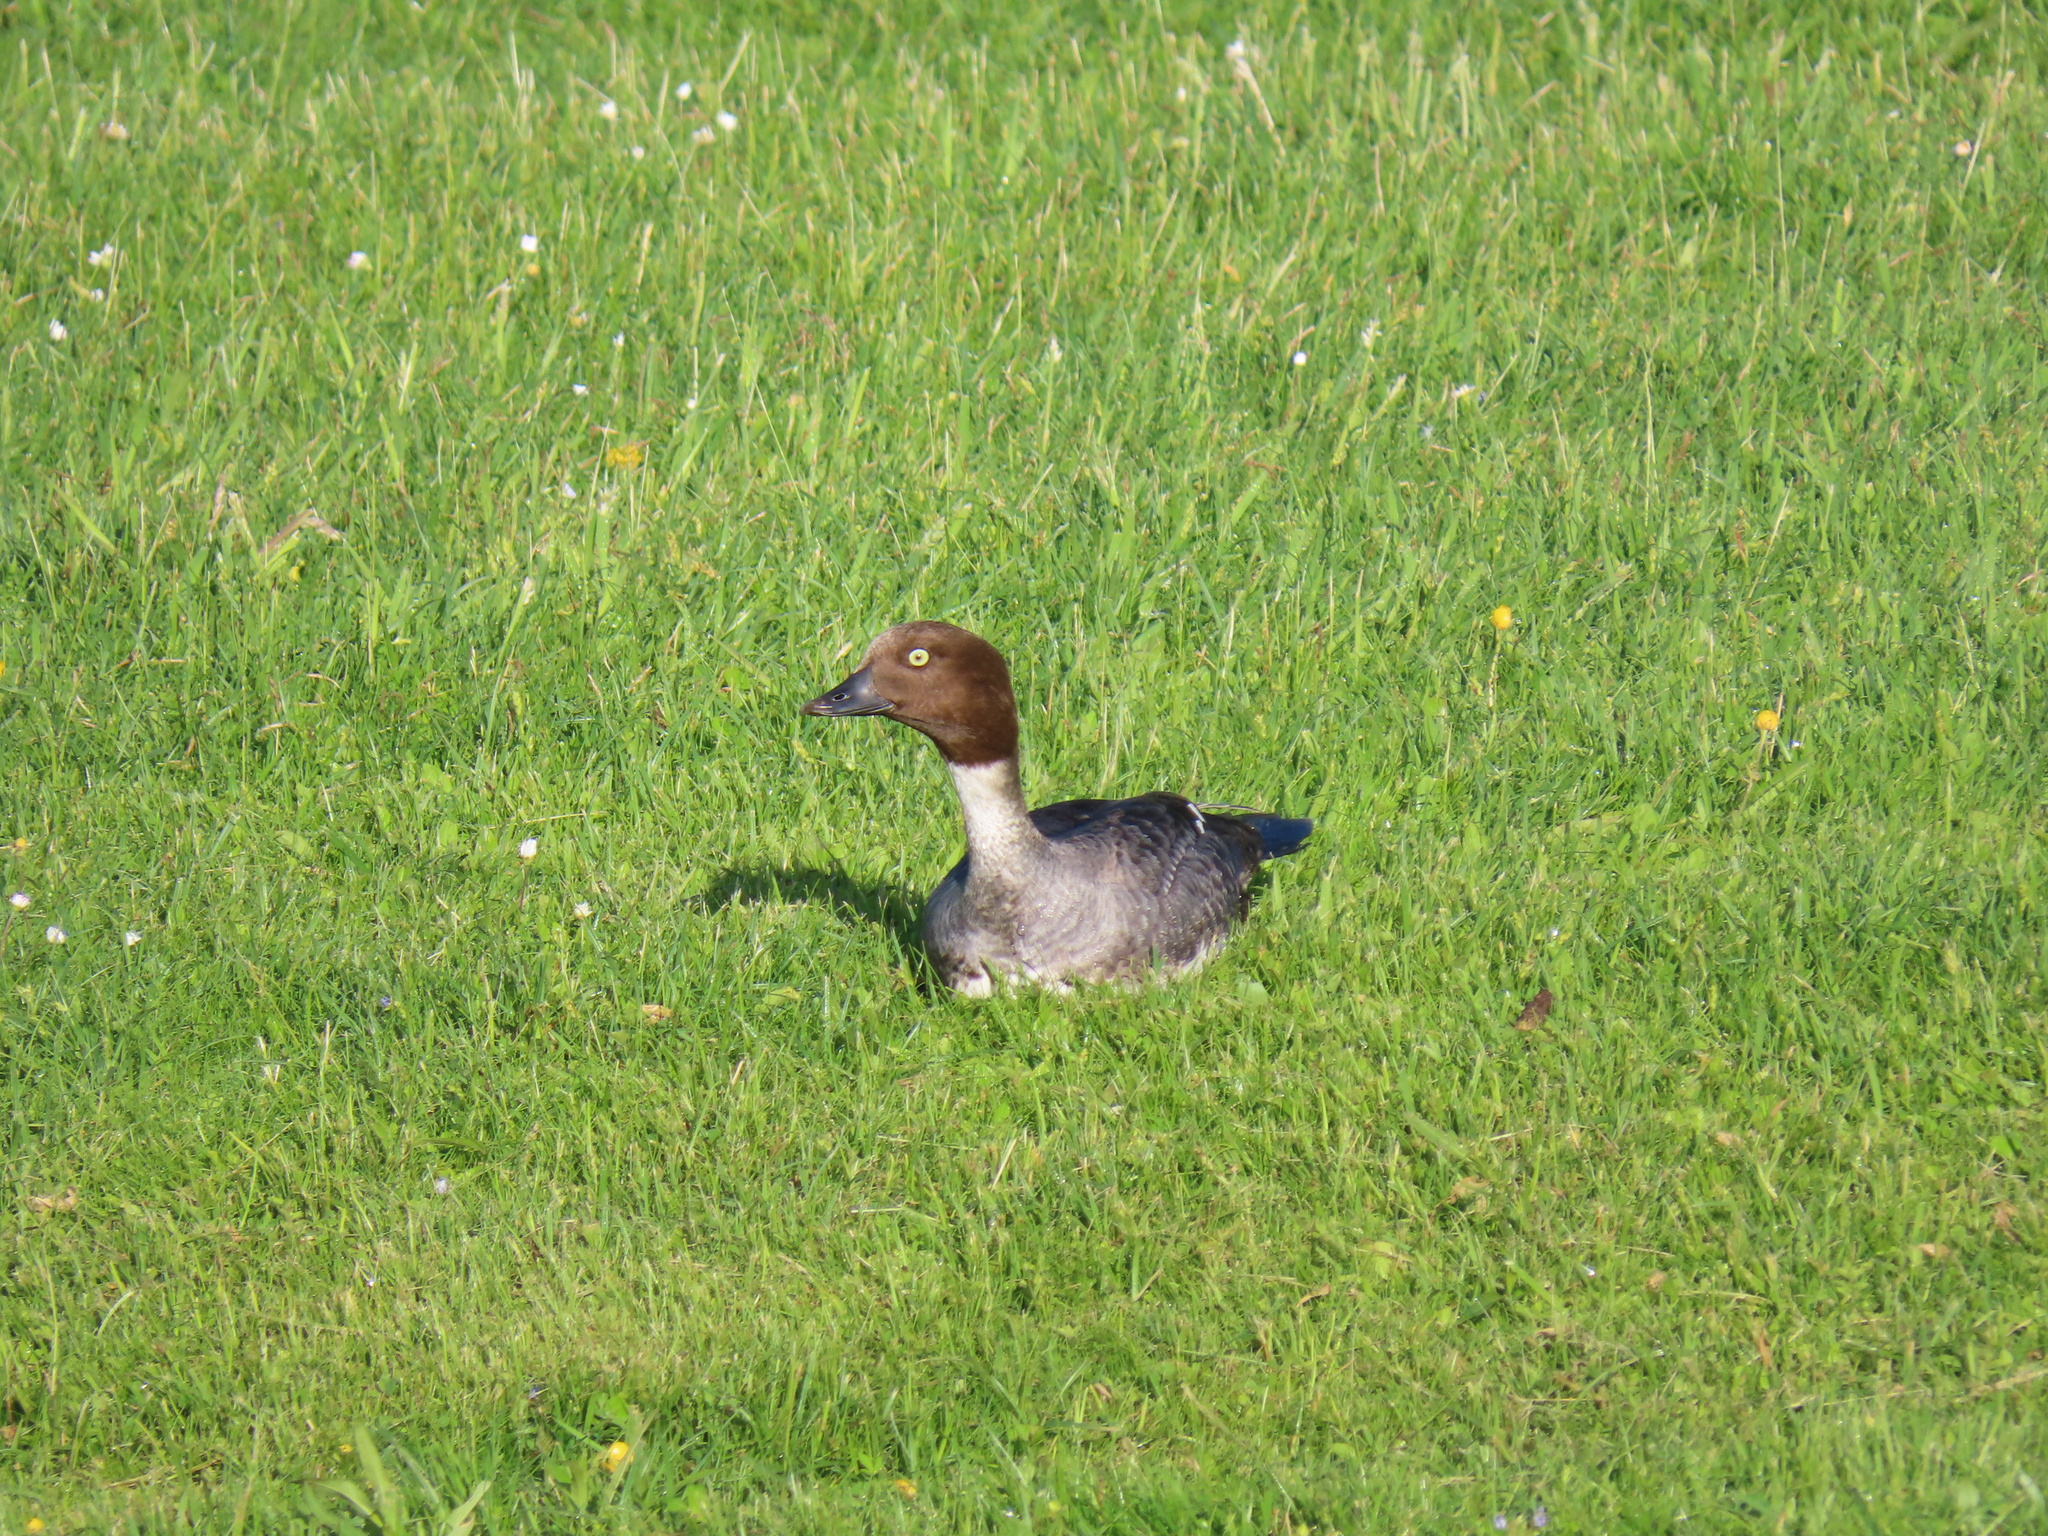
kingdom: Animalia
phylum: Chordata
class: Aves
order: Anseriformes
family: Anatidae
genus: Bucephala
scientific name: Bucephala clangula
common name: Common goldeneye
